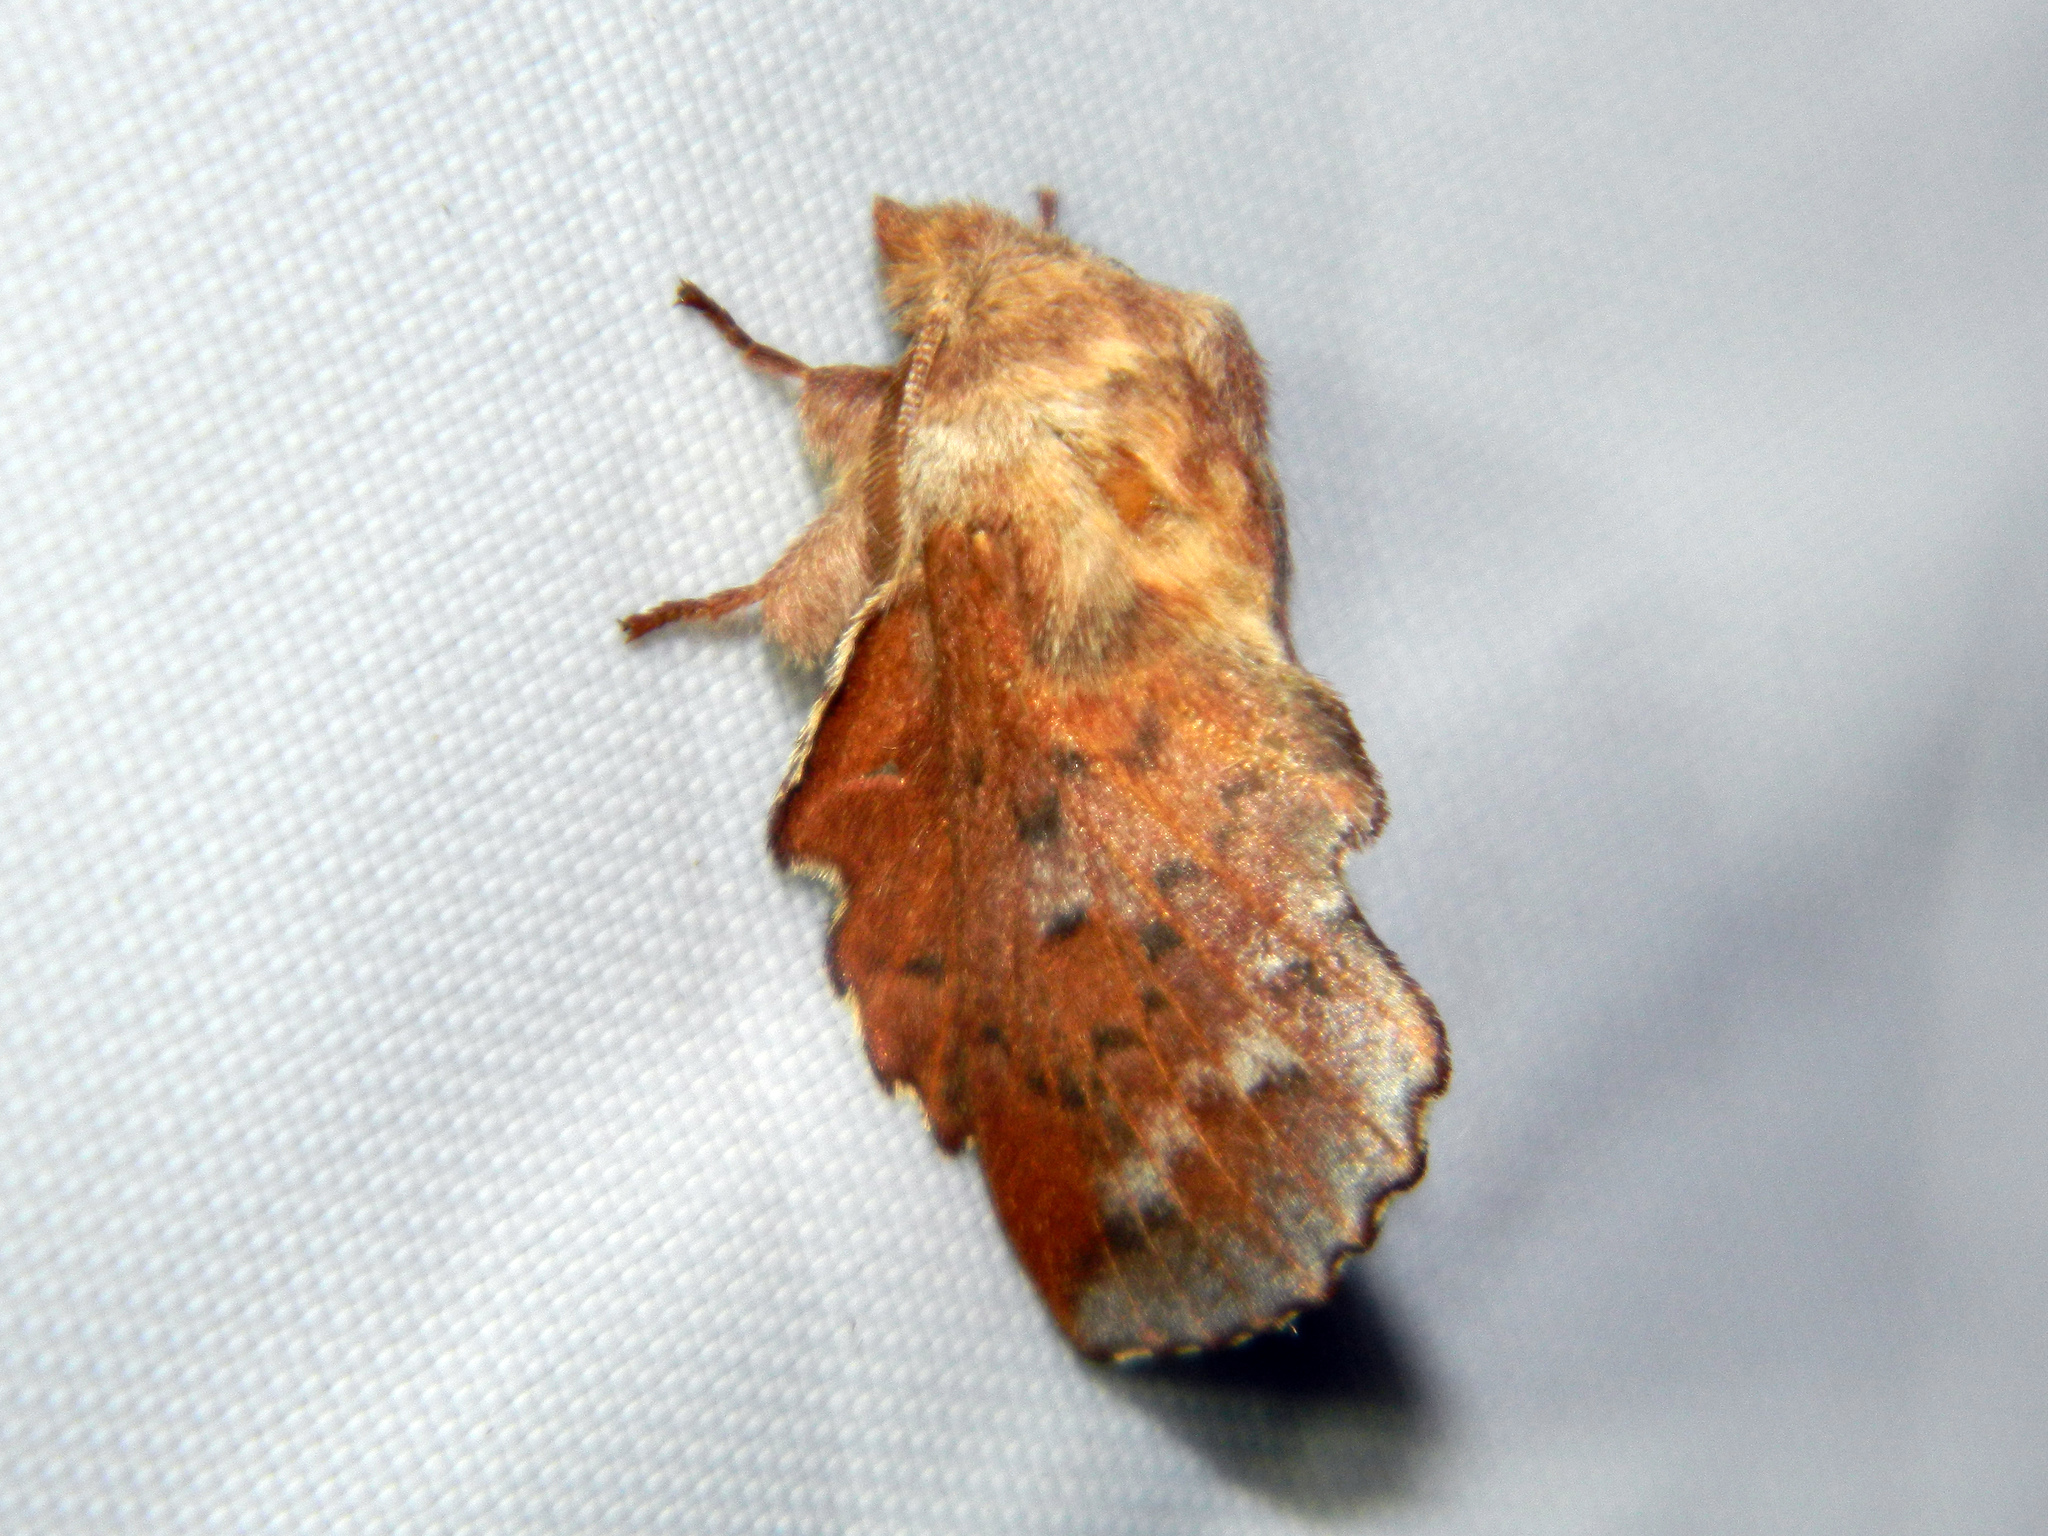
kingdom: Animalia
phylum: Arthropoda
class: Insecta
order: Lepidoptera
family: Lasiocampidae
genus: Phyllodesma
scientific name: Phyllodesma americana
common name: American lappet moth
